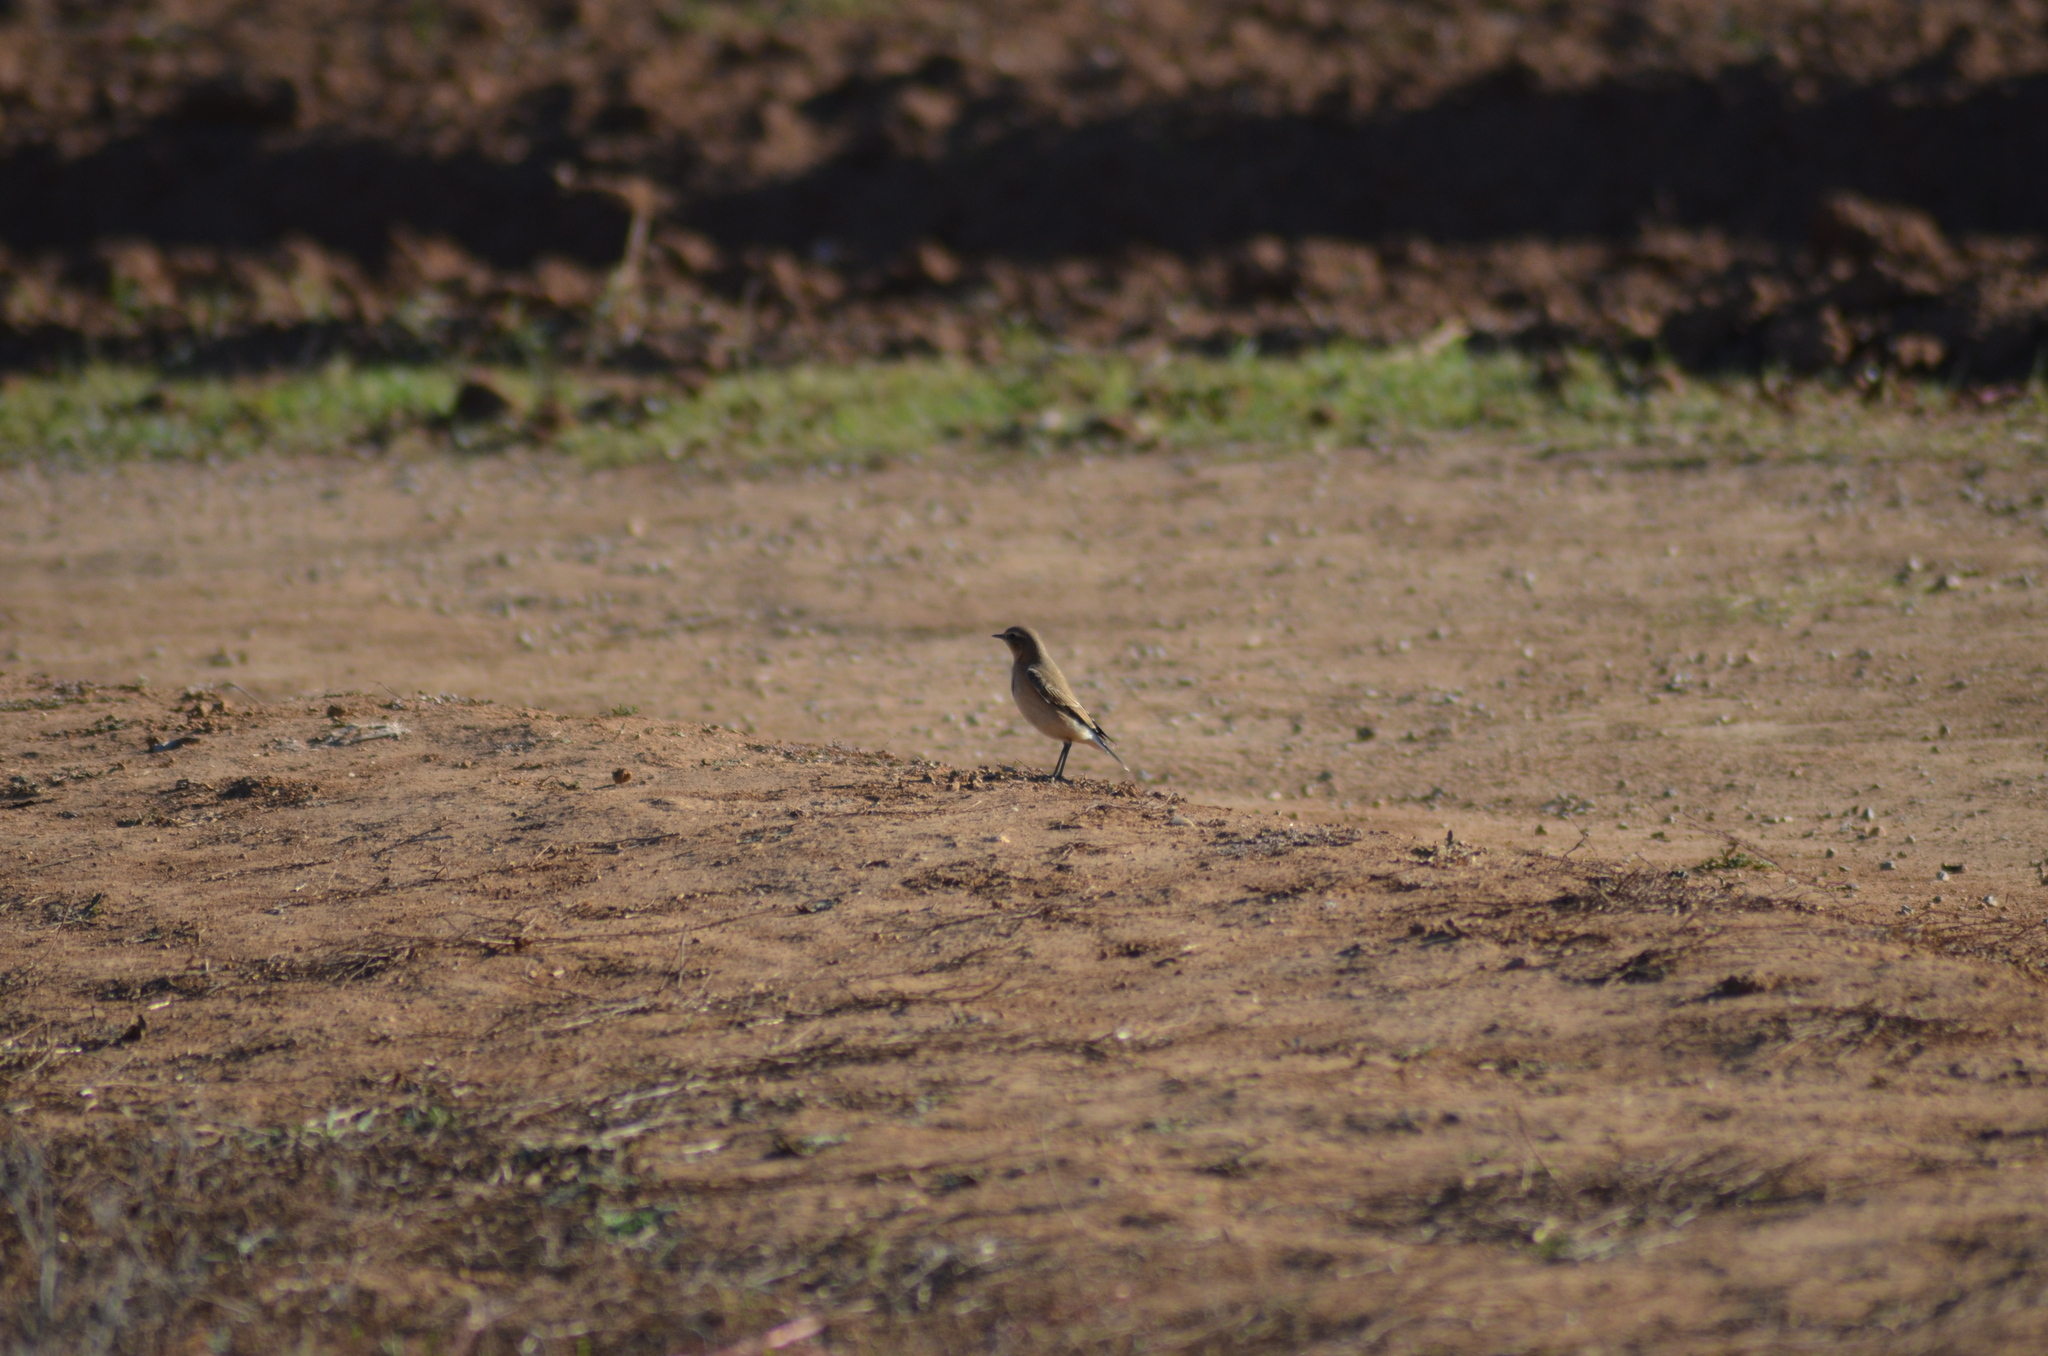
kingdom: Animalia
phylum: Chordata
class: Aves
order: Passeriformes
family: Muscicapidae
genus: Oenanthe
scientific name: Oenanthe oenanthe
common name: Northern wheatear
